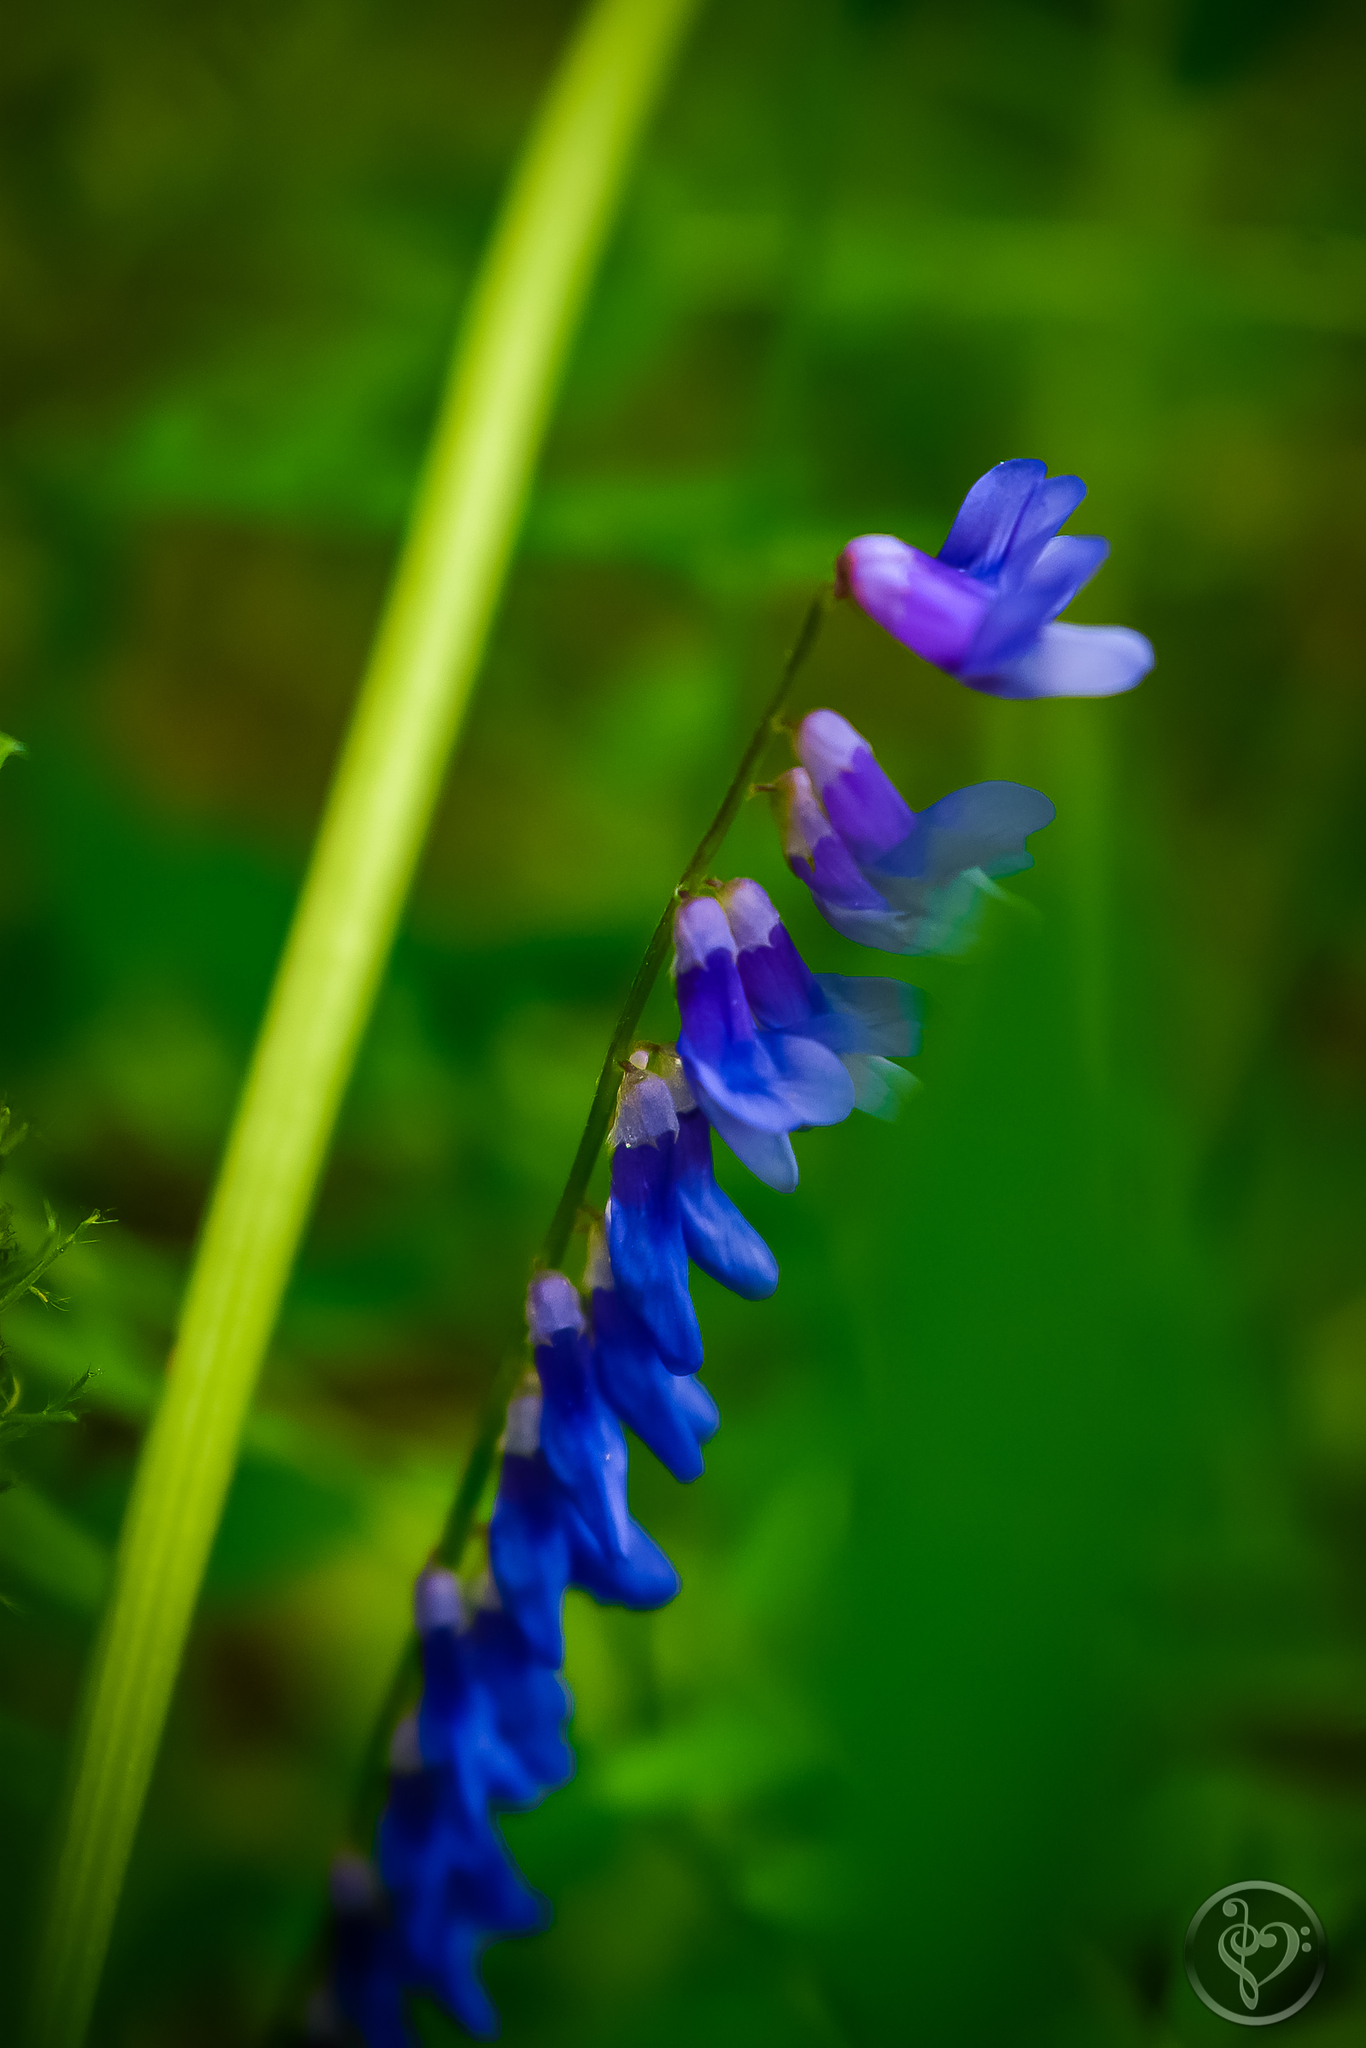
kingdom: Plantae
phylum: Tracheophyta
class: Magnoliopsida
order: Fabales
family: Fabaceae
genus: Vicia
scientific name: Vicia cracca
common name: Bird vetch
